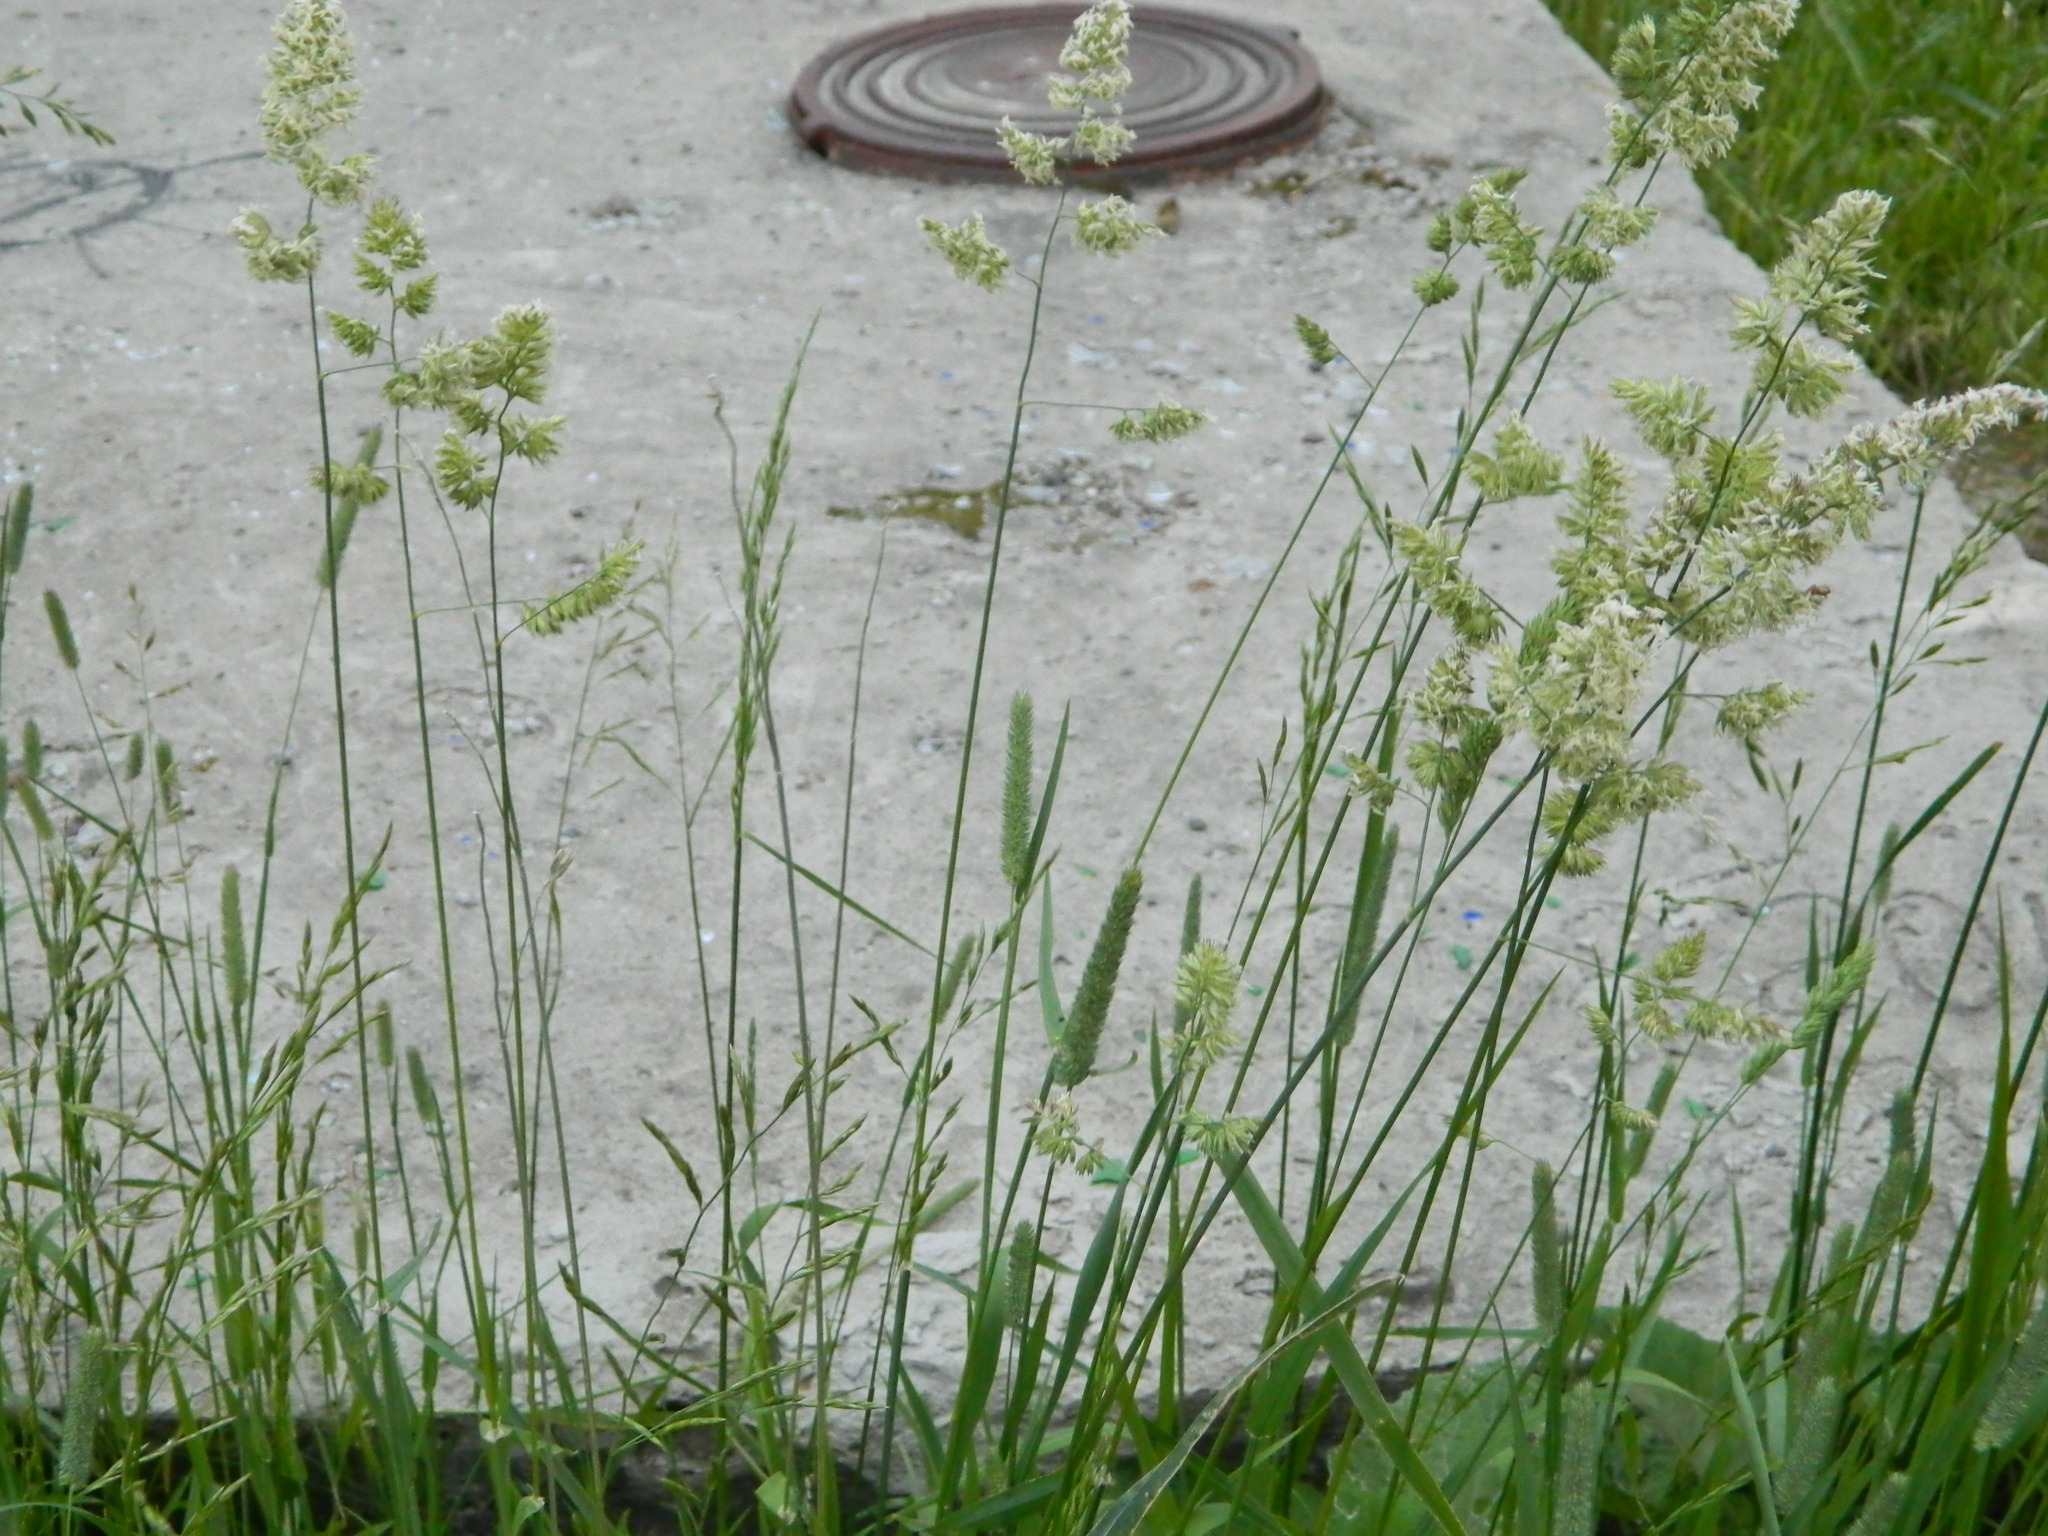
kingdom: Plantae
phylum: Tracheophyta
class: Liliopsida
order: Poales
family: Poaceae
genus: Dactylis
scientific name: Dactylis glomerata
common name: Orchardgrass
